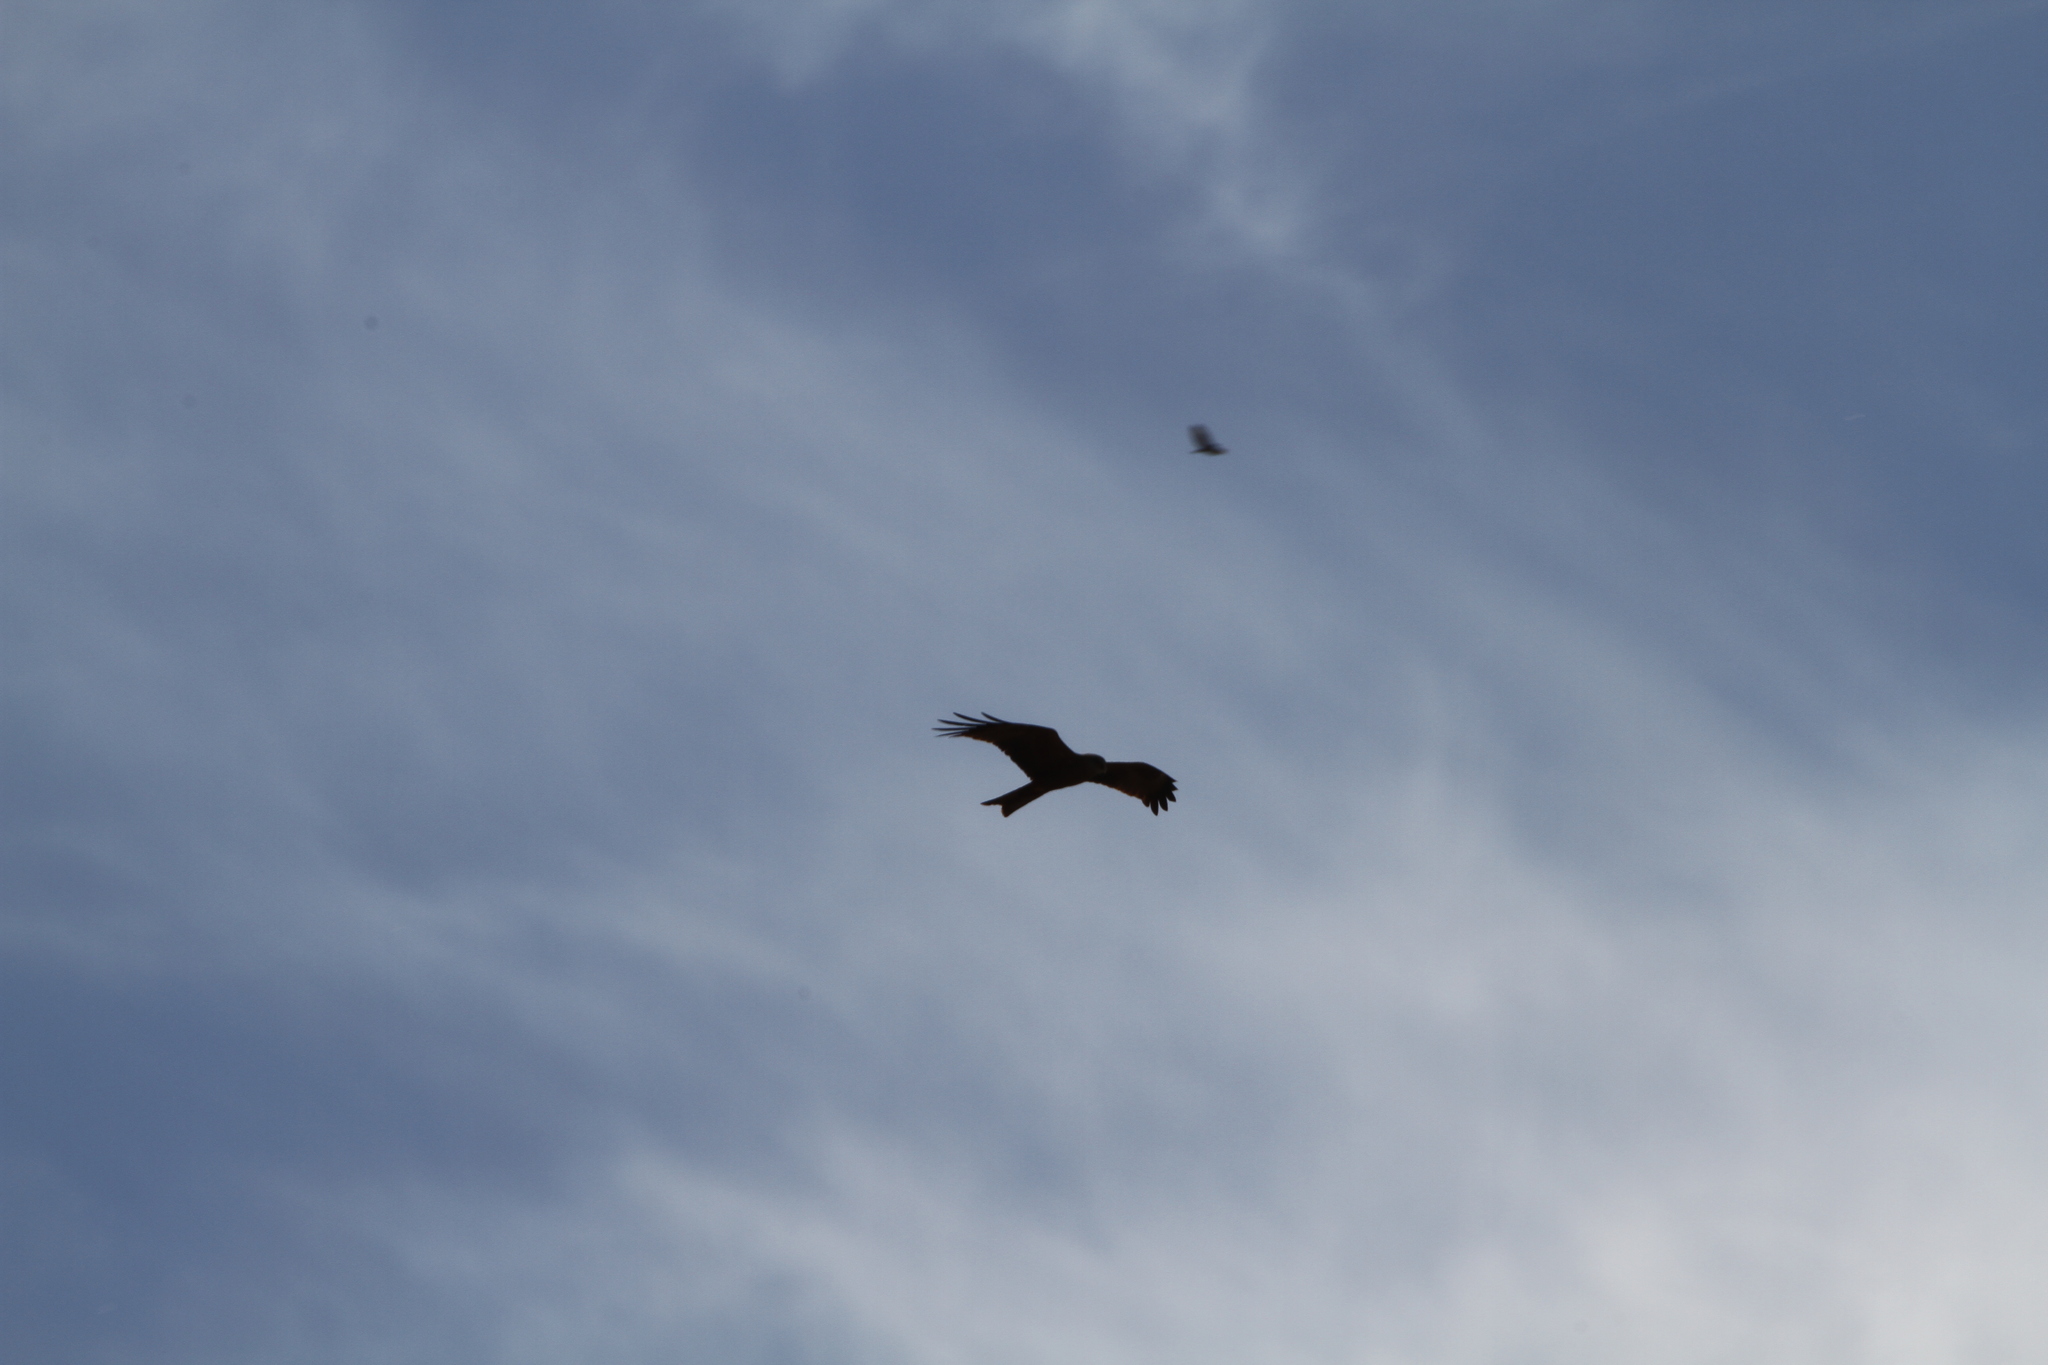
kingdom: Animalia
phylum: Chordata
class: Aves
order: Accipitriformes
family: Accipitridae
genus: Milvus
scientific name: Milvus migrans
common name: Black kite
